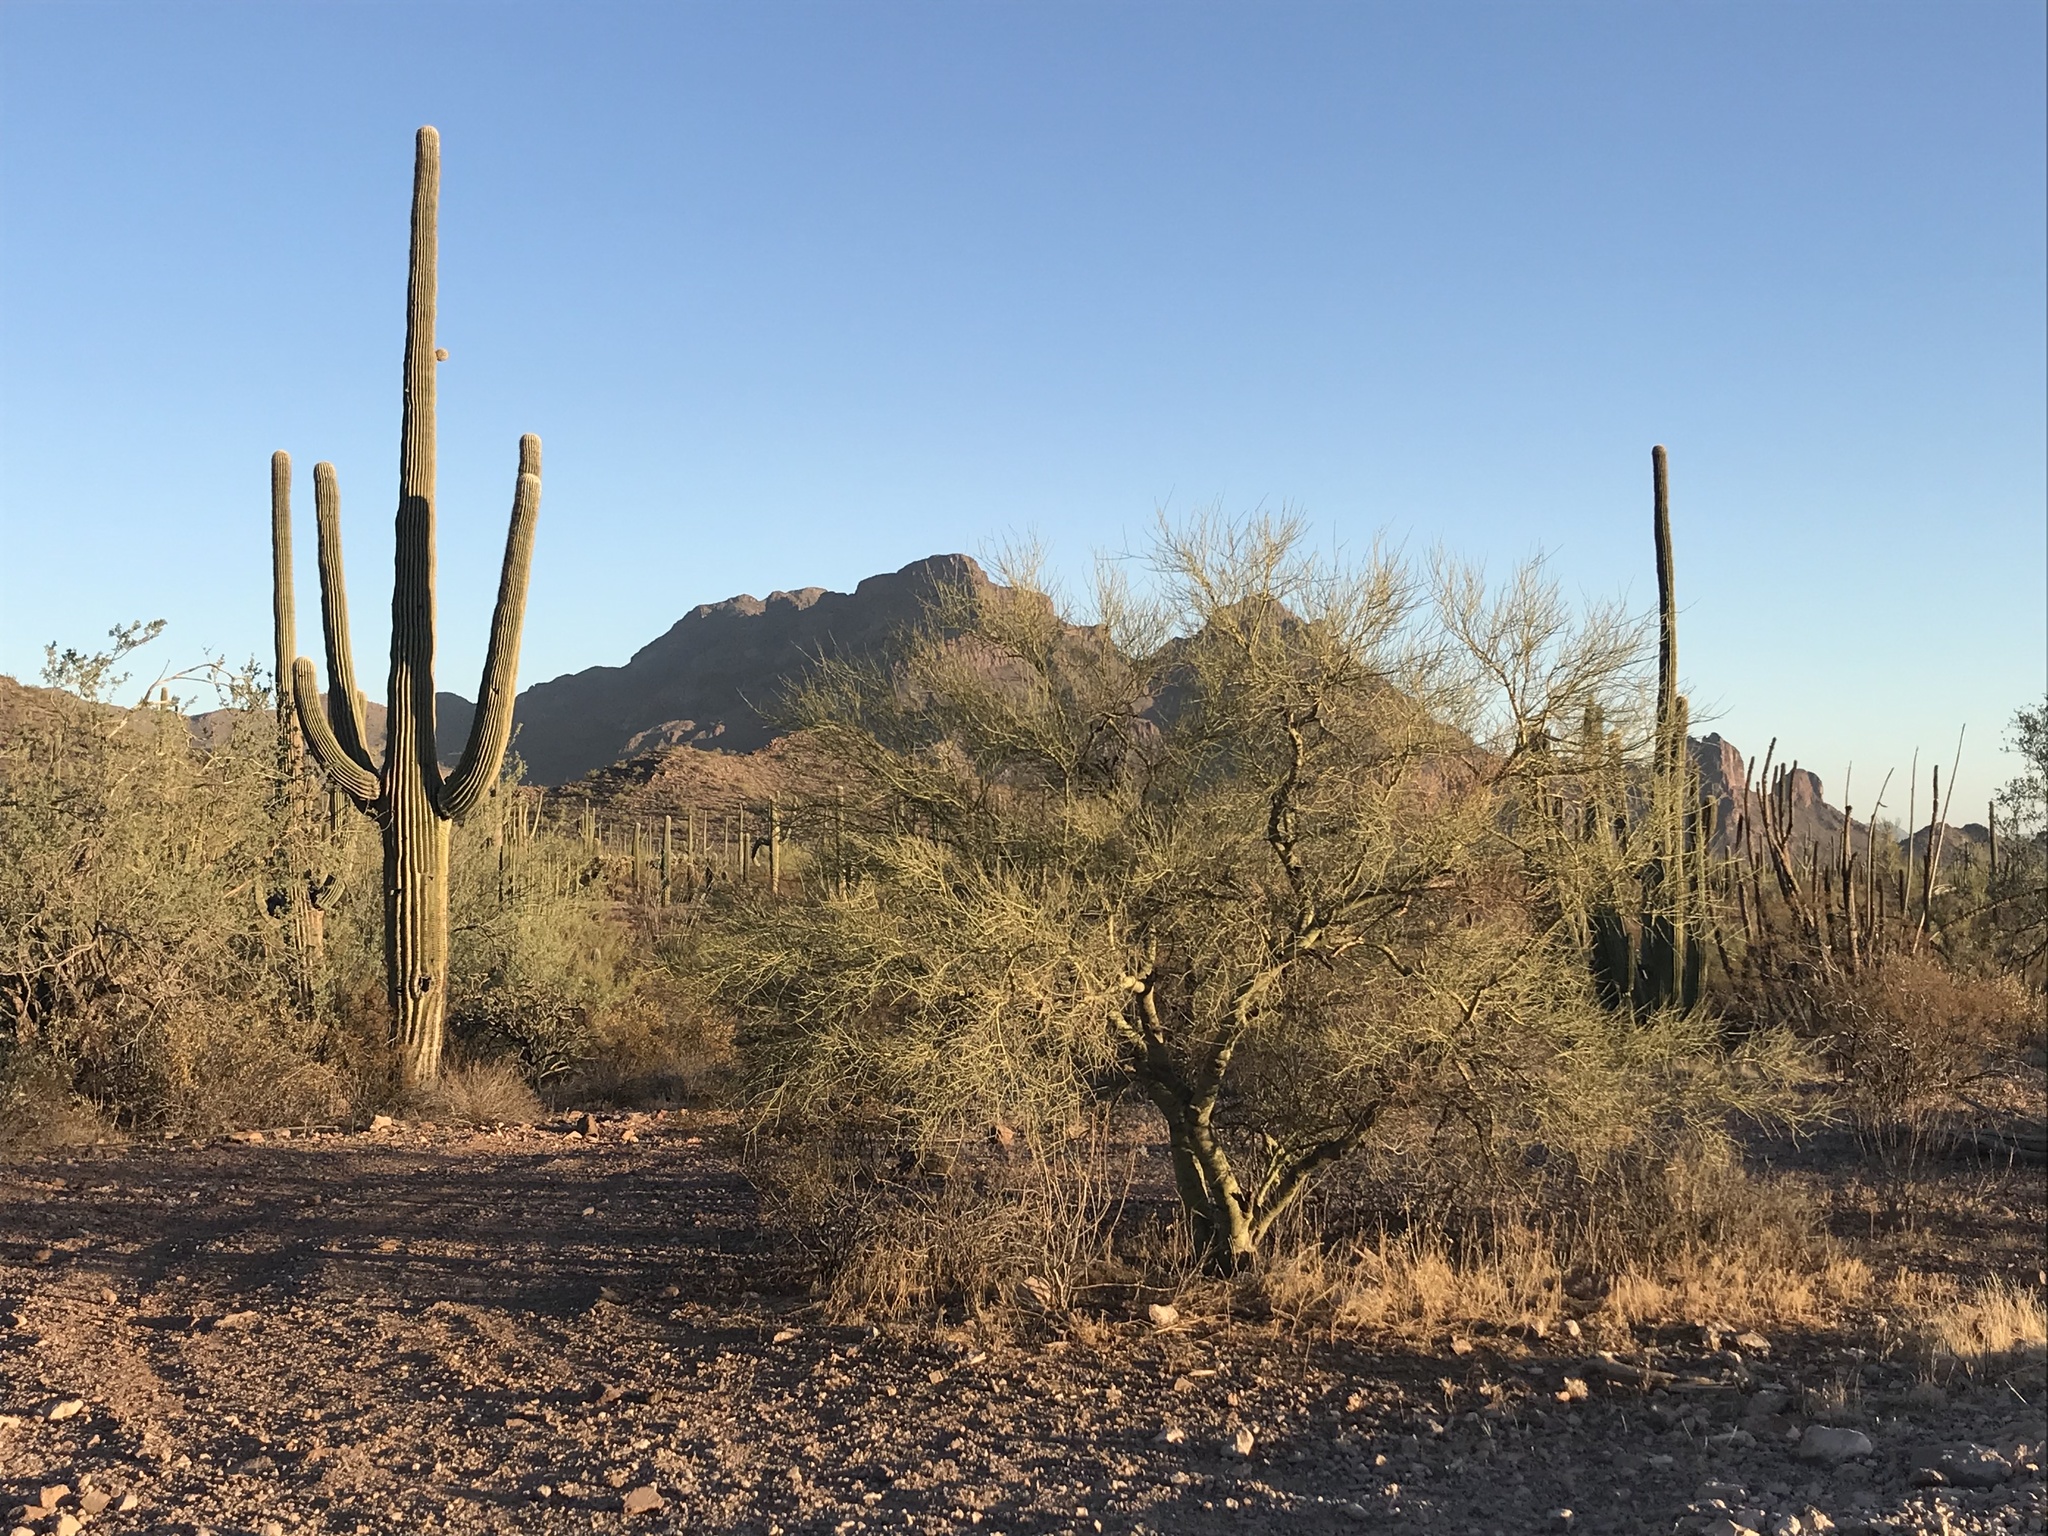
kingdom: Plantae
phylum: Tracheophyta
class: Magnoliopsida
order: Caryophyllales
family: Cactaceae
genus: Carnegiea
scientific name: Carnegiea gigantea
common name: Saguaro
